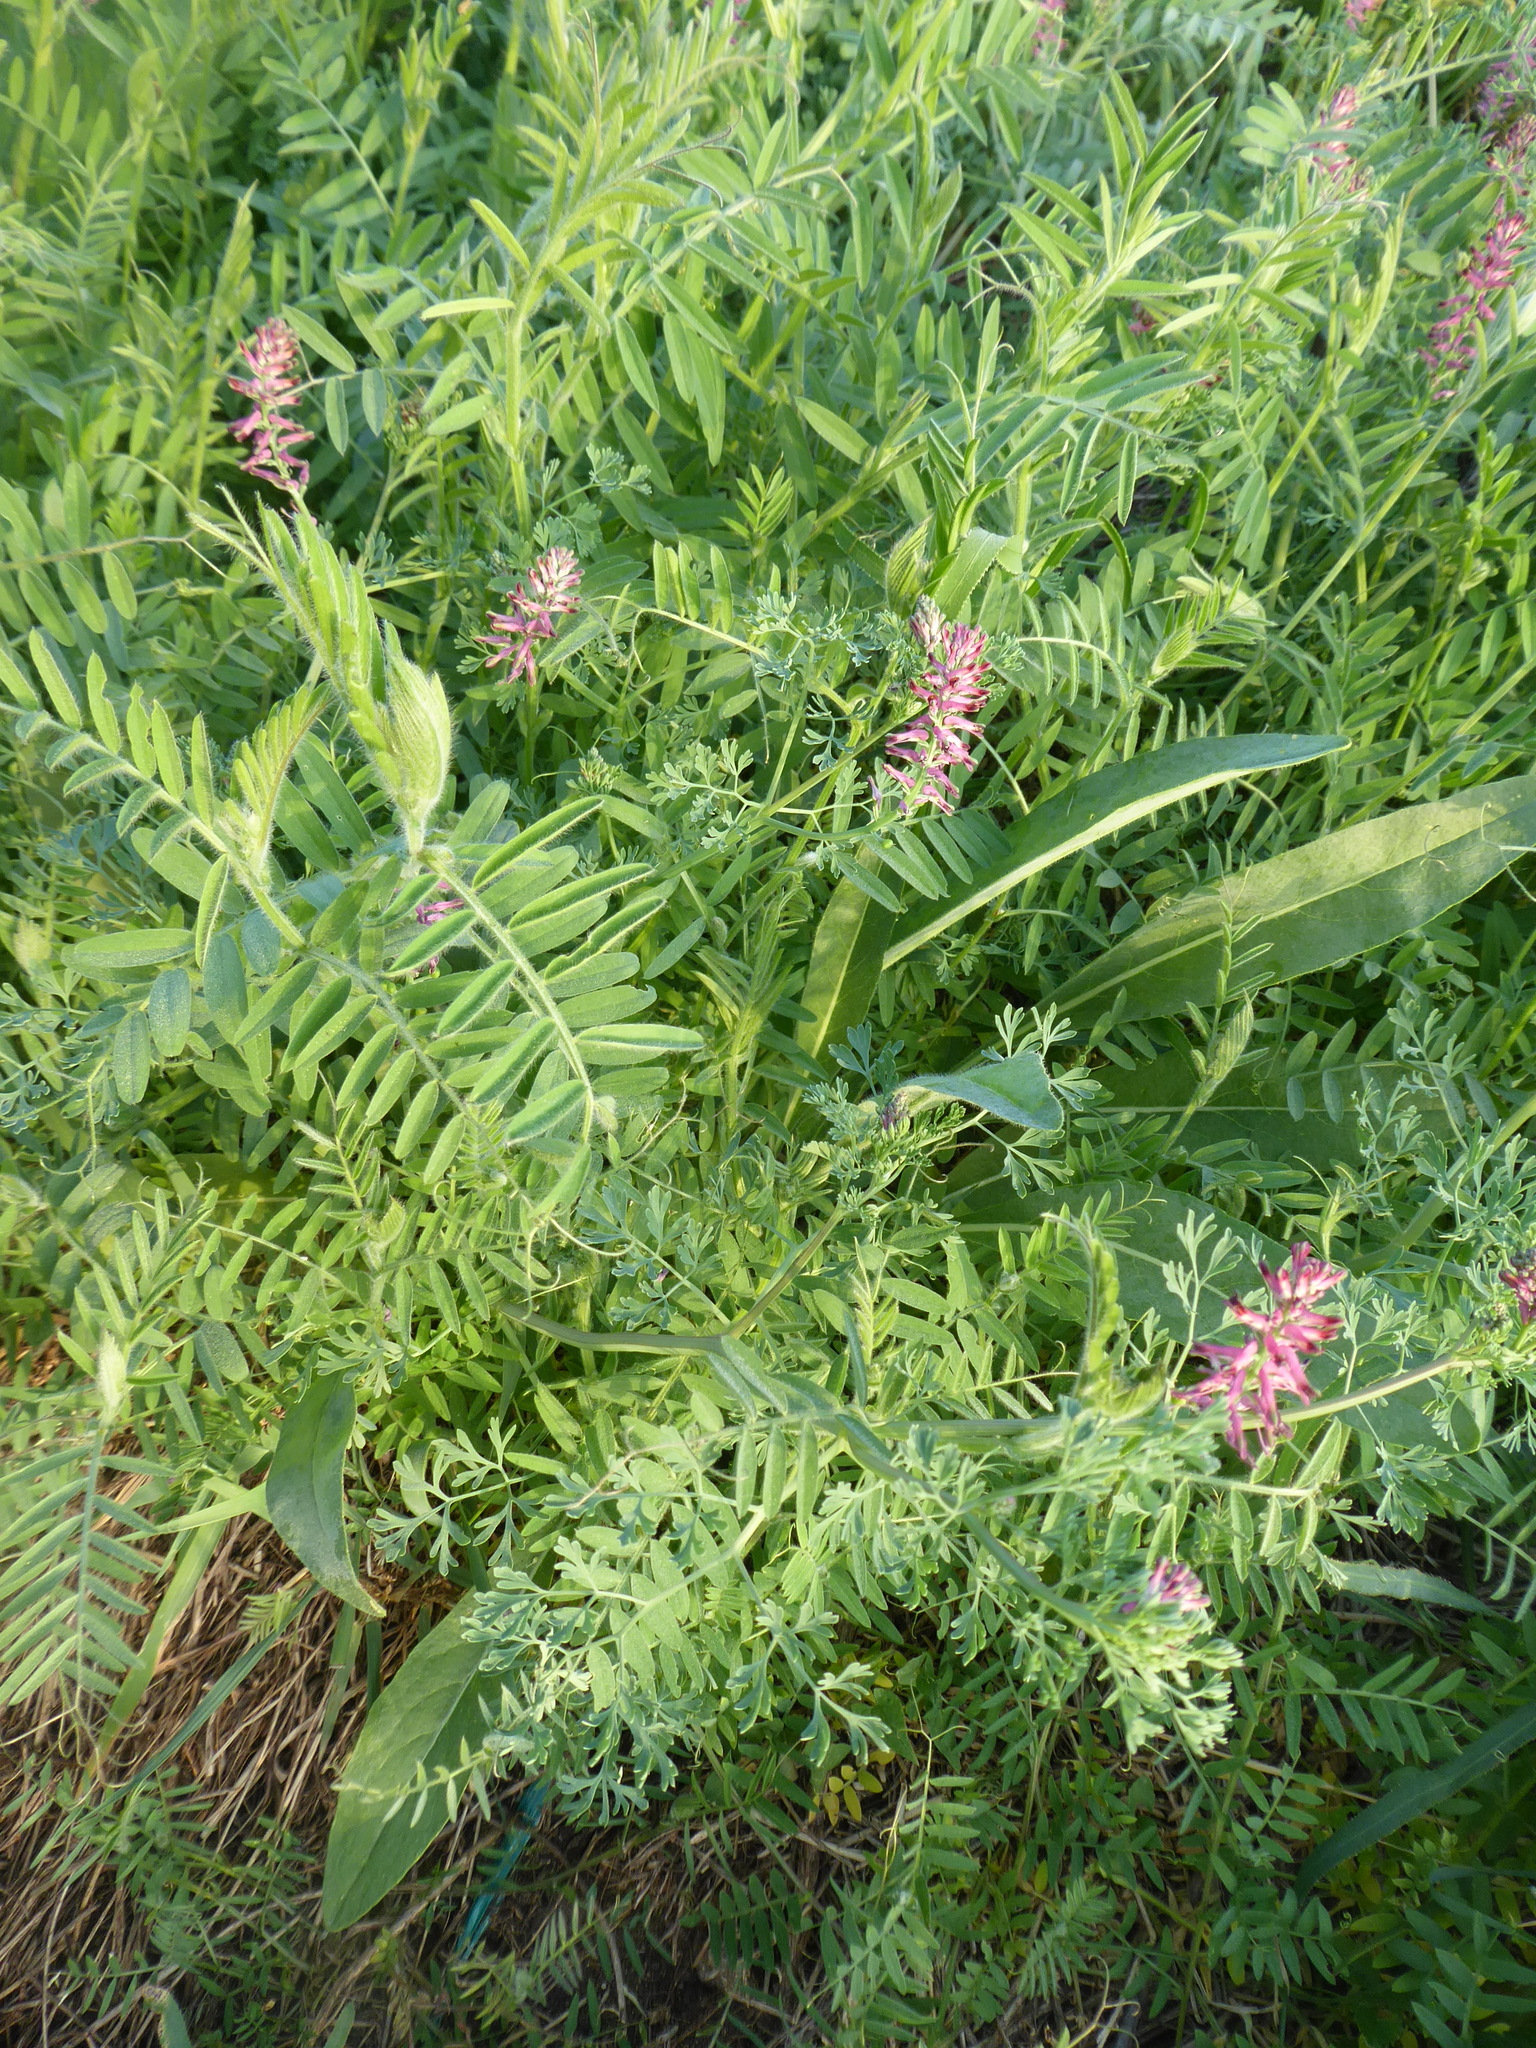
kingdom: Plantae
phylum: Tracheophyta
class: Magnoliopsida
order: Ranunculales
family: Papaveraceae
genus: Fumaria
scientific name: Fumaria officinalis
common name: Common fumitory
